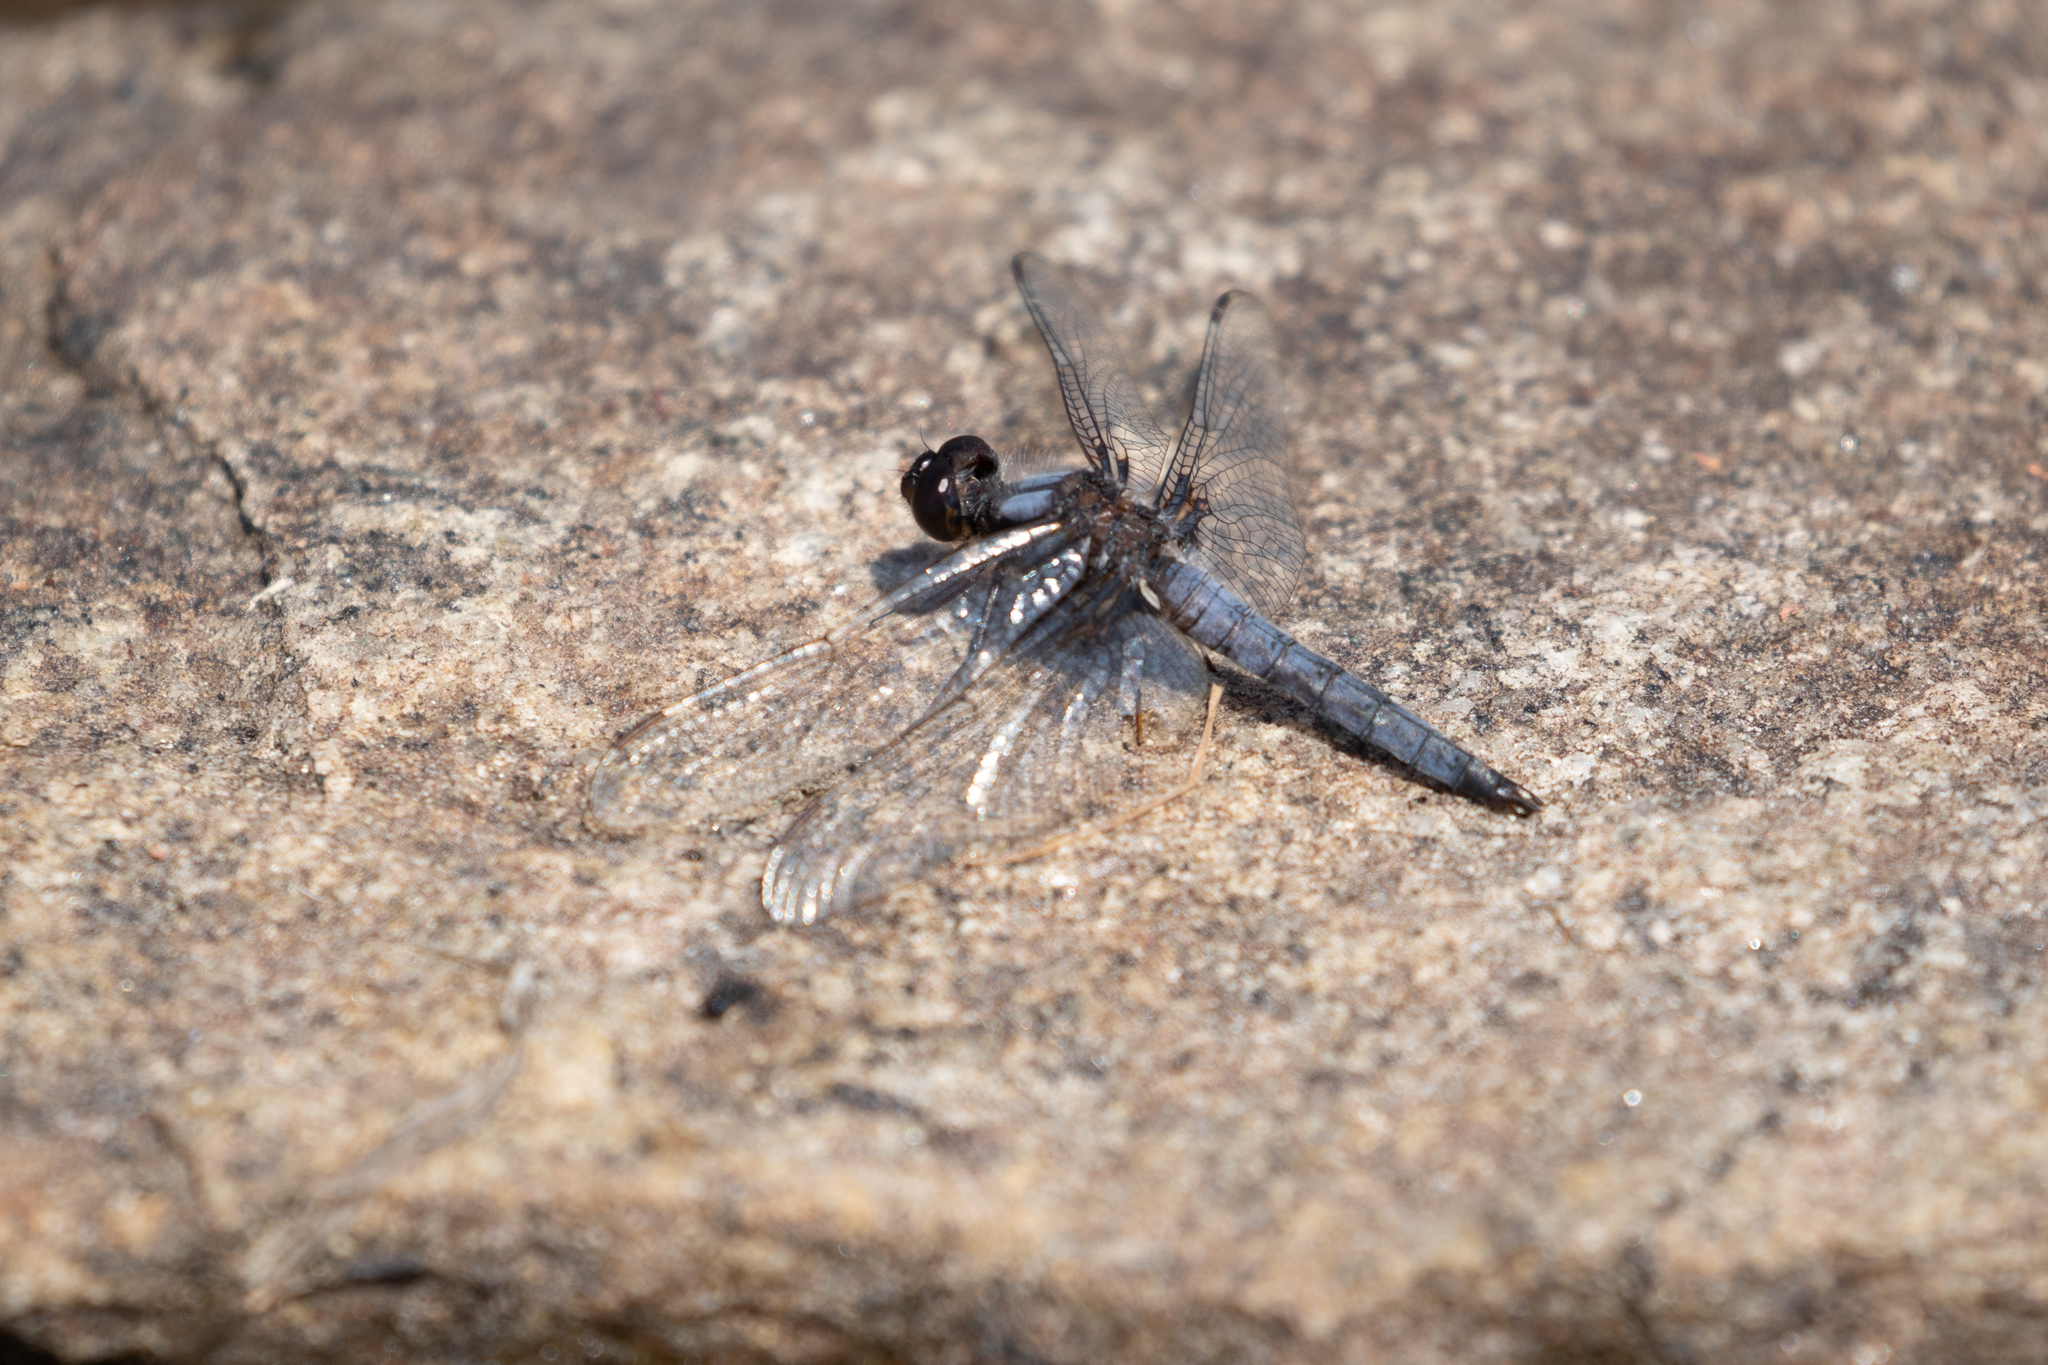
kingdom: Animalia
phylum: Arthropoda
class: Insecta
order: Odonata
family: Libellulidae
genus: Ladona
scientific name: Ladona deplanata
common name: Blue corporal
